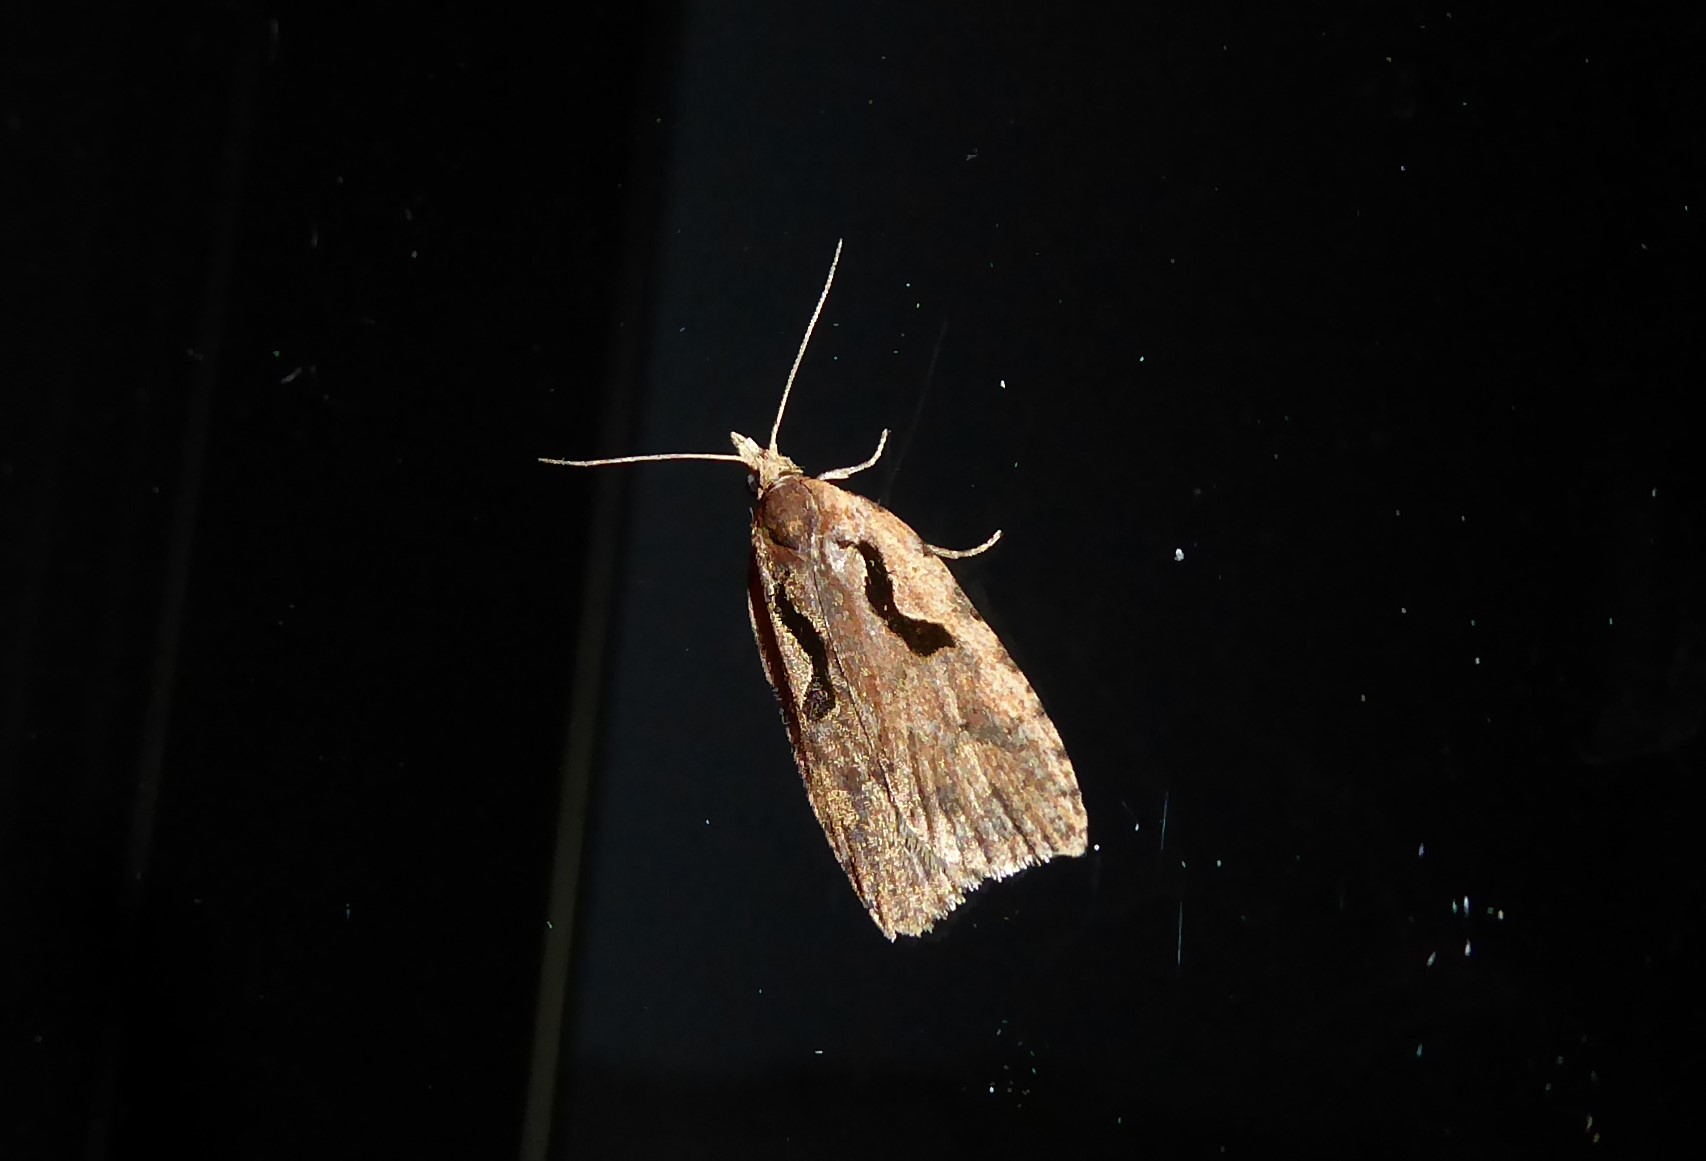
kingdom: Animalia
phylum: Arthropoda
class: Insecta
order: Lepidoptera
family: Tortricidae
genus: Cnephasia
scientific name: Cnephasia jactatana
